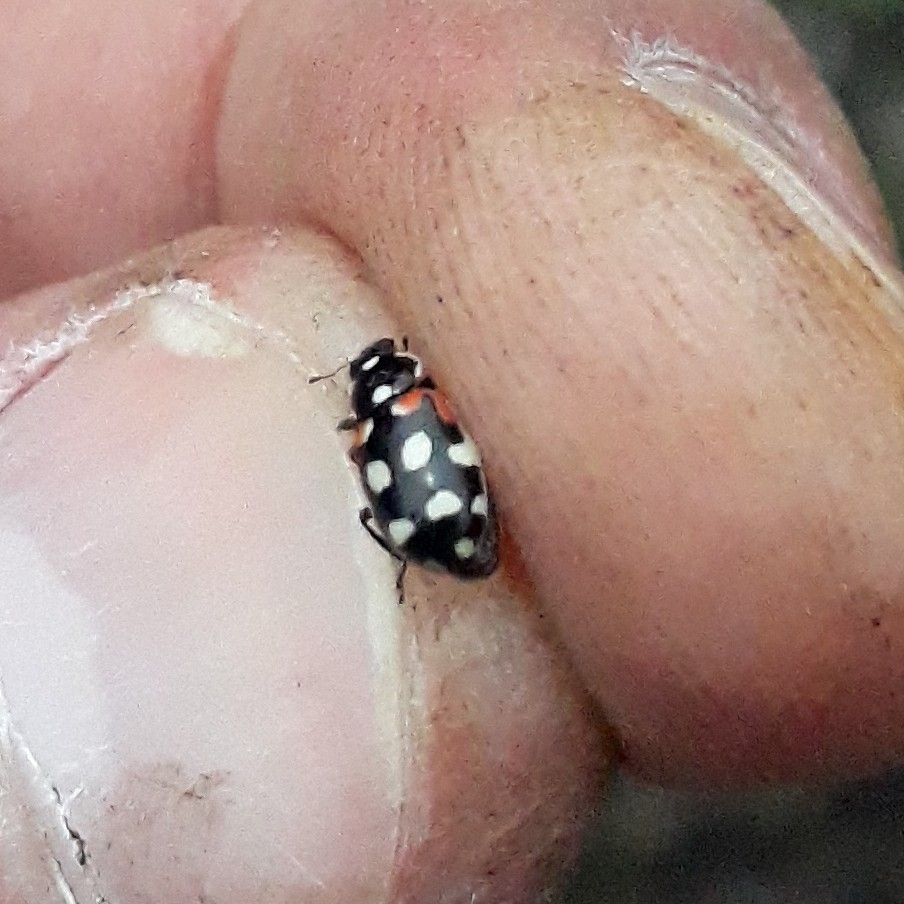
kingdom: Animalia
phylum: Arthropoda
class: Insecta
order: Coleoptera
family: Coccinellidae
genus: Eriopis
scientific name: Eriopis punicola
